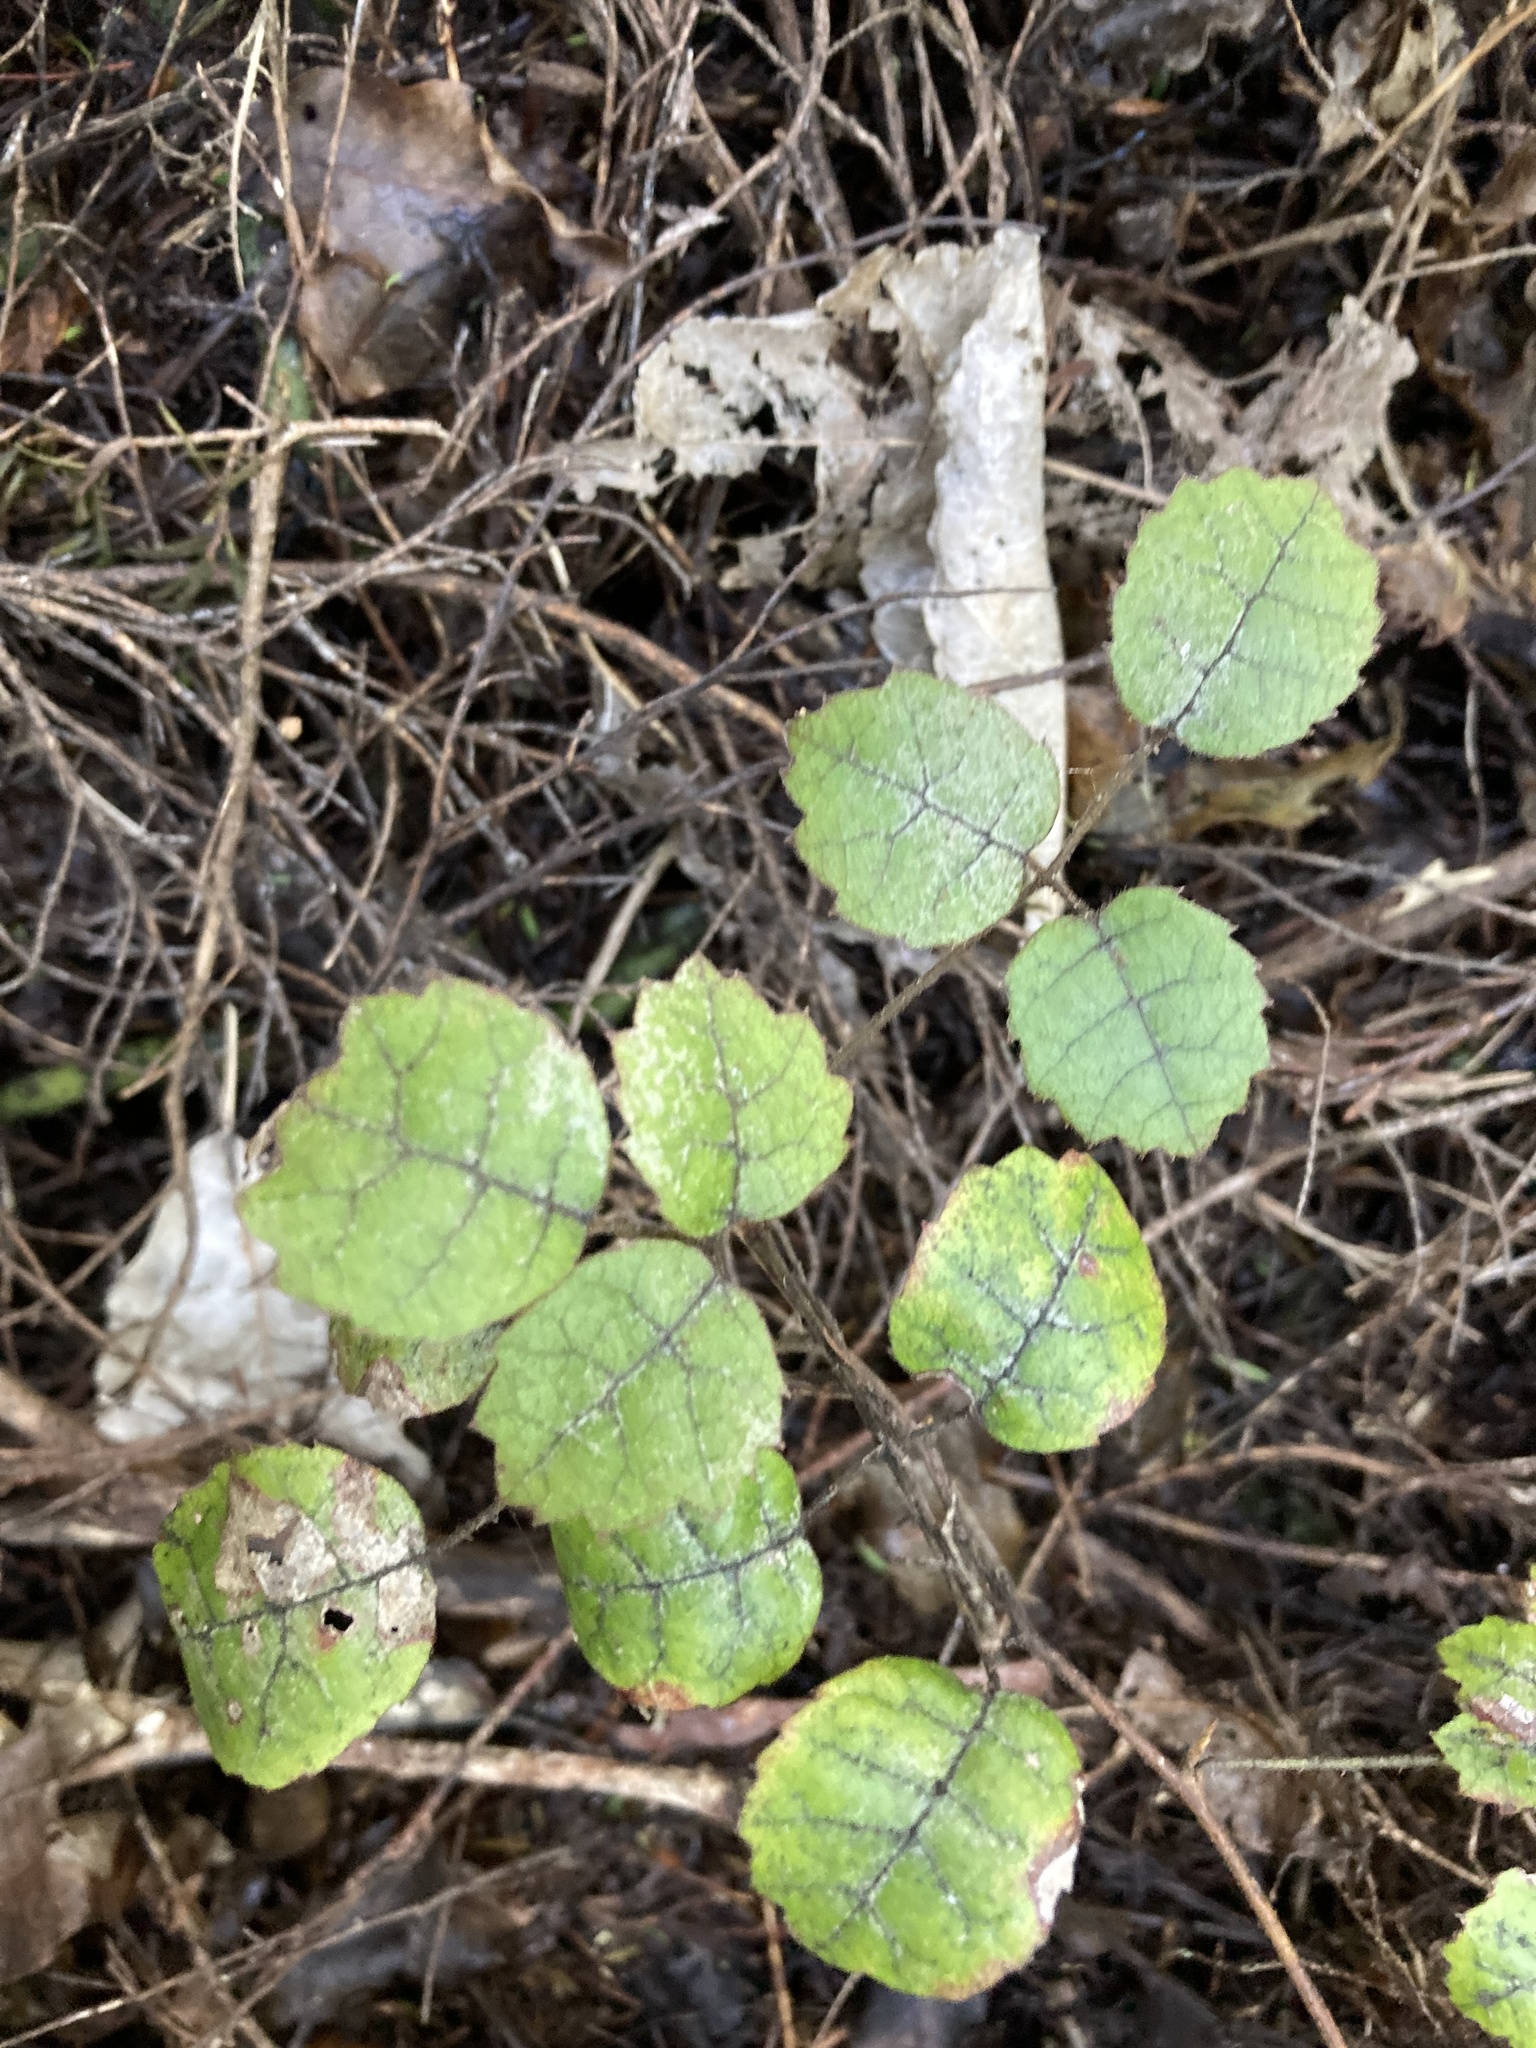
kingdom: Plantae
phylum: Tracheophyta
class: Magnoliopsida
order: Rosales
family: Rosaceae
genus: Rubus
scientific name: Rubus australis
